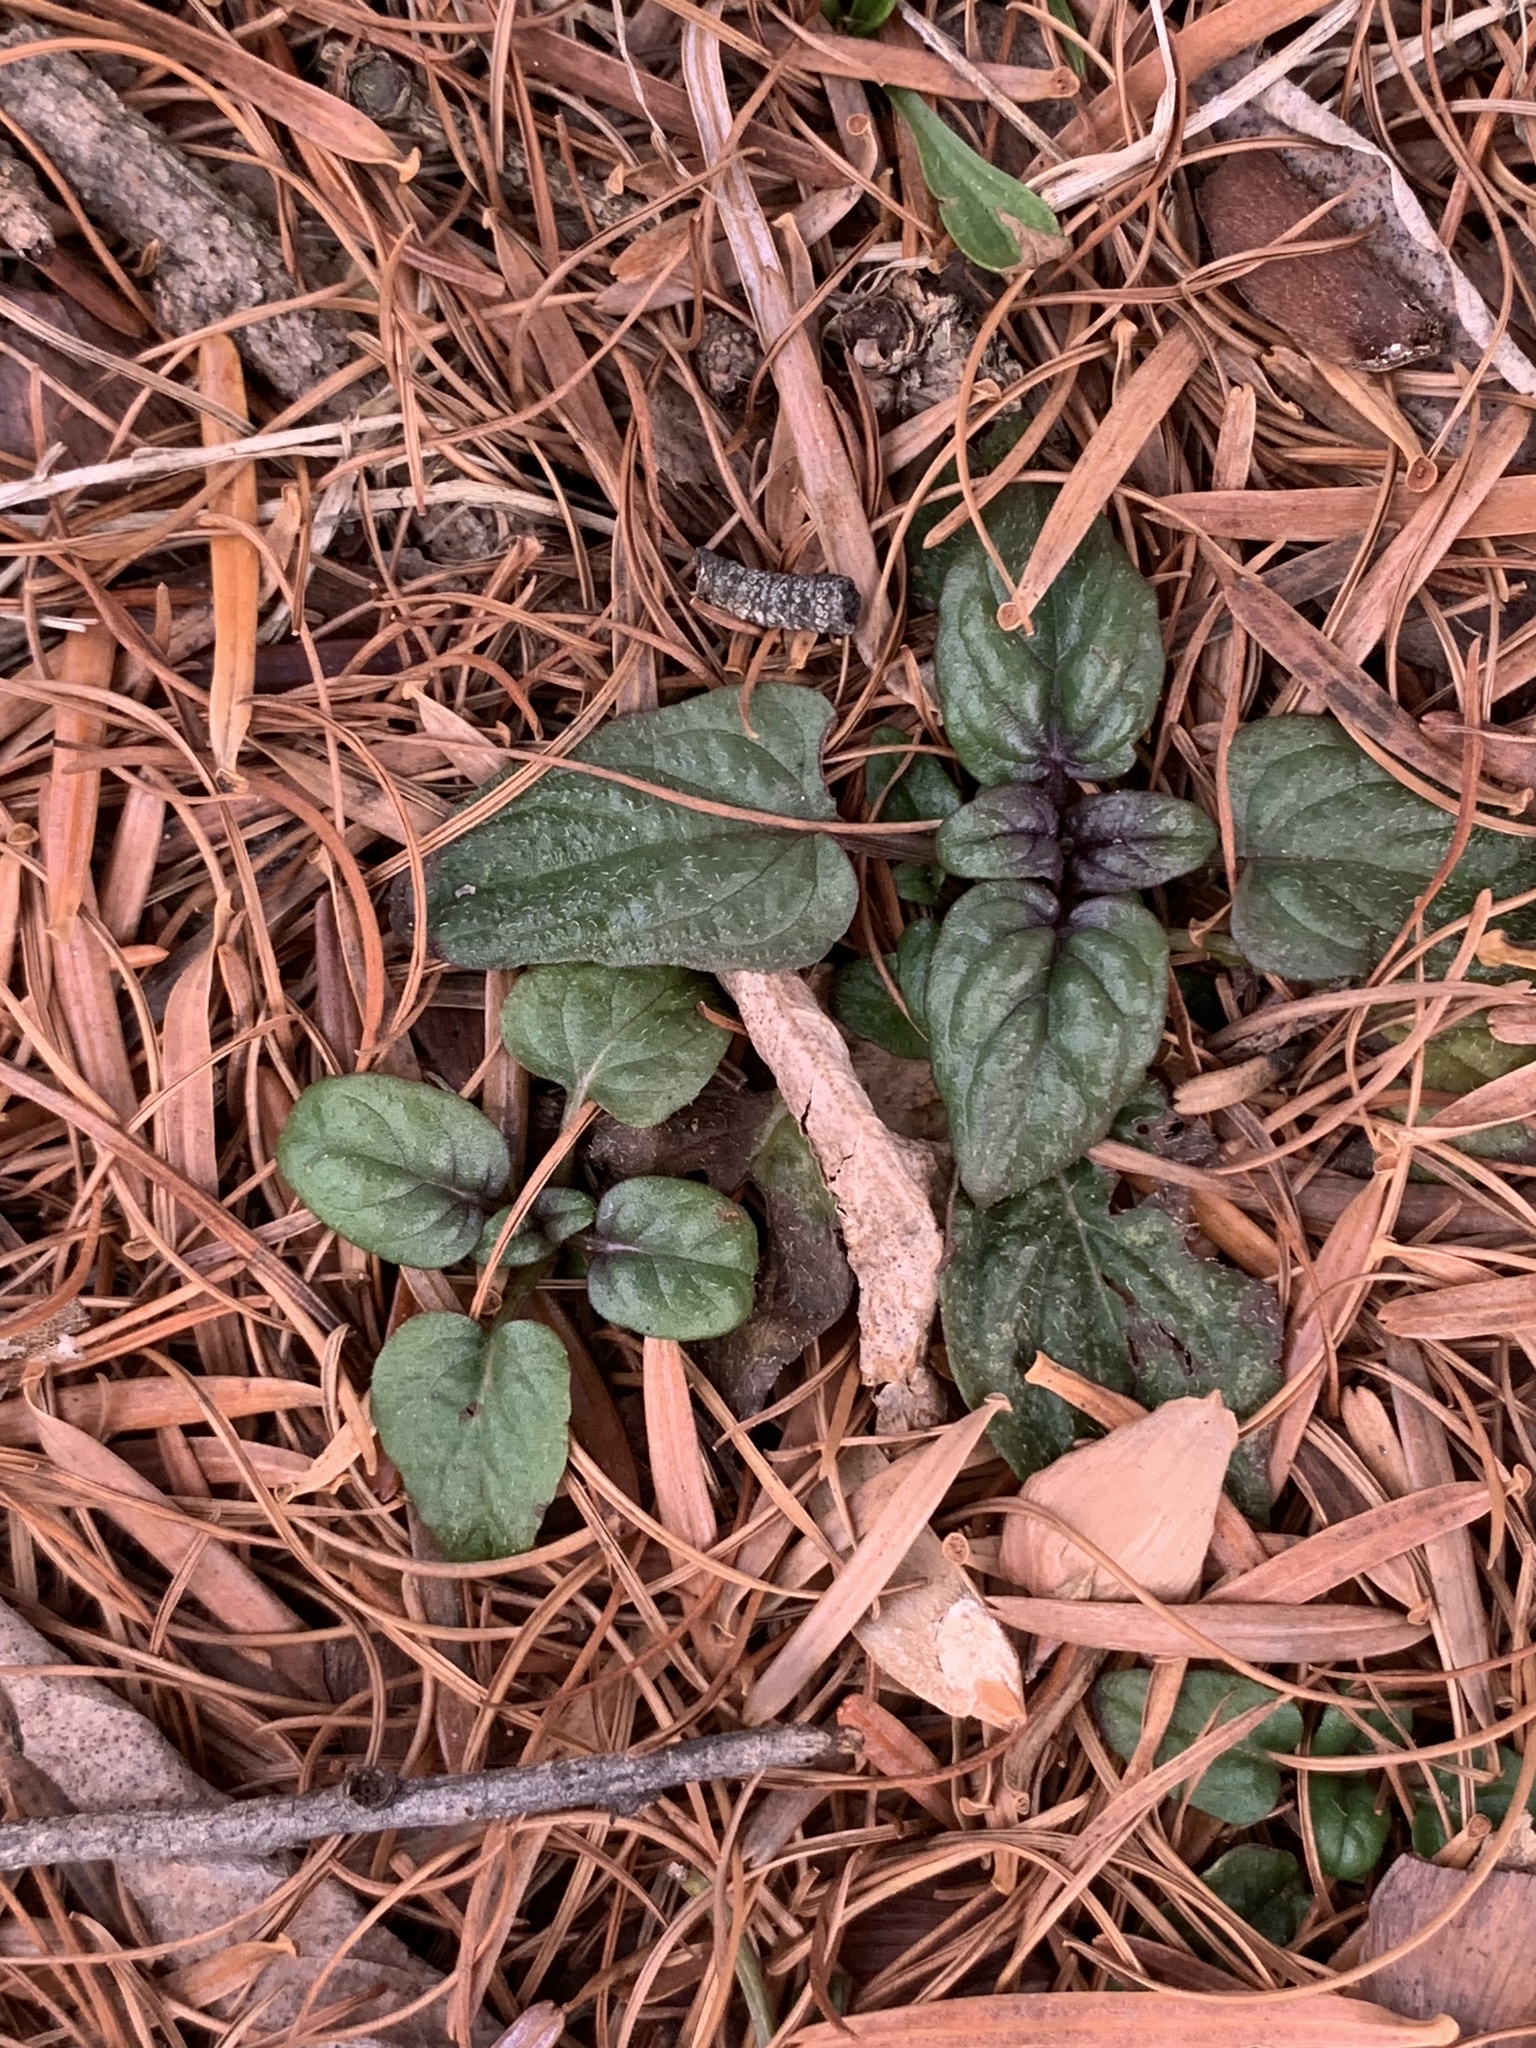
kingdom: Plantae
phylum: Tracheophyta
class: Magnoliopsida
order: Lamiales
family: Lamiaceae
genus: Prunella
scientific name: Prunella vulgaris
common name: Heal-all
